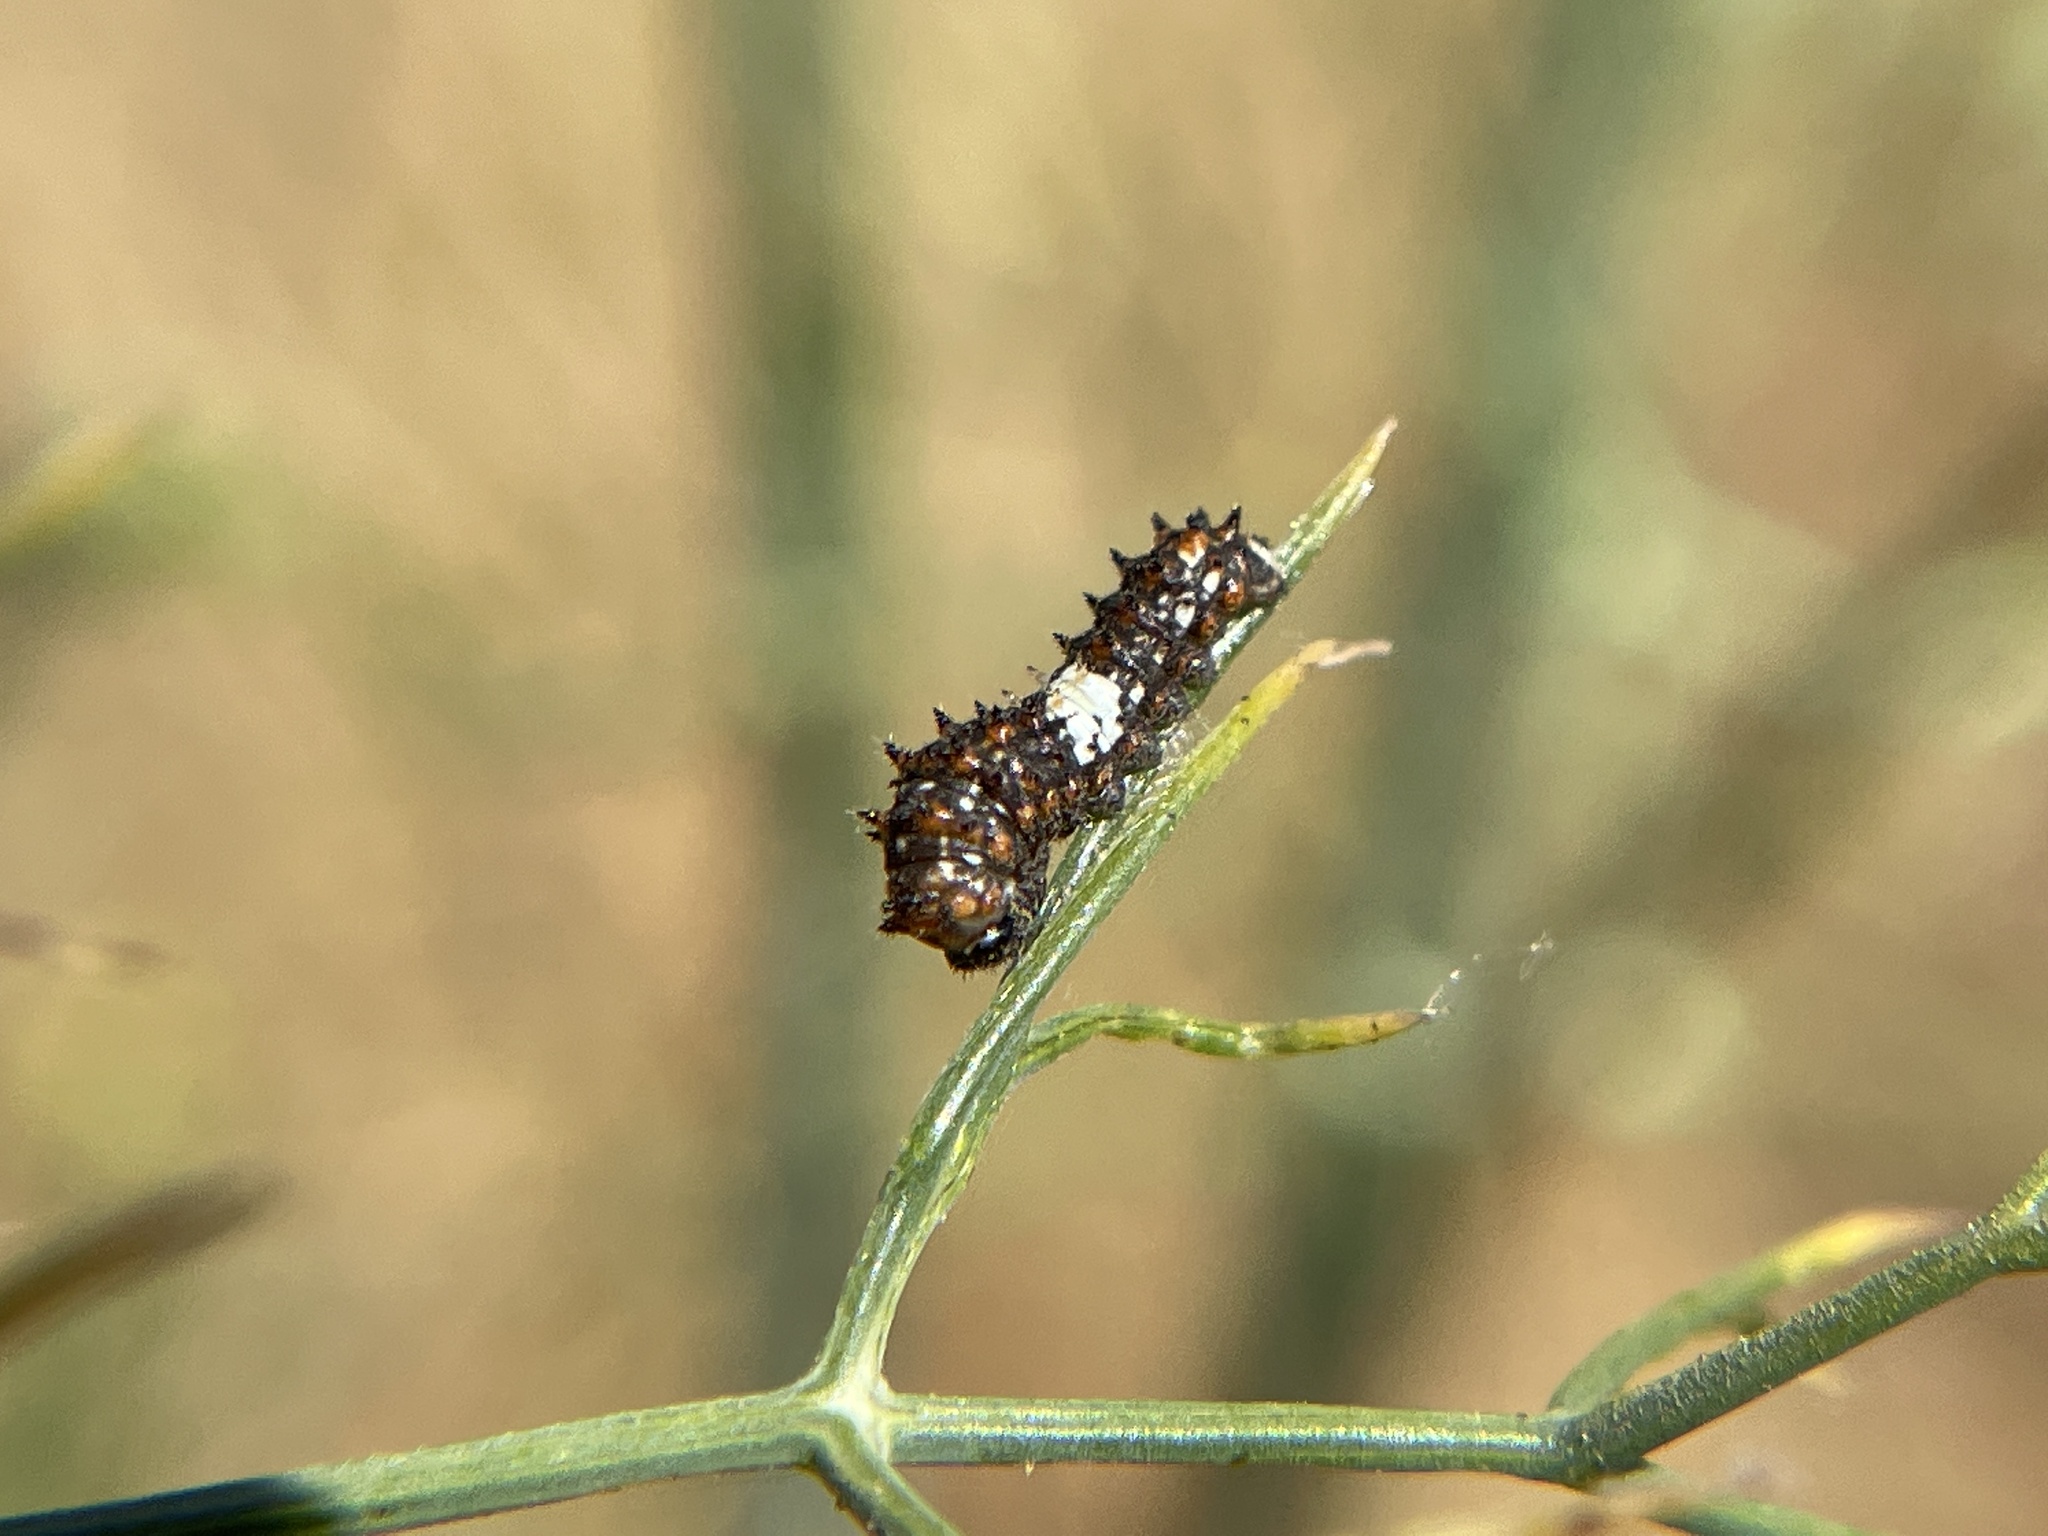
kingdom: Animalia
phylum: Arthropoda
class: Insecta
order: Lepidoptera
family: Papilionidae
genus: Papilio
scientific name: Papilio zelicaon
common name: Anise swallowtail
